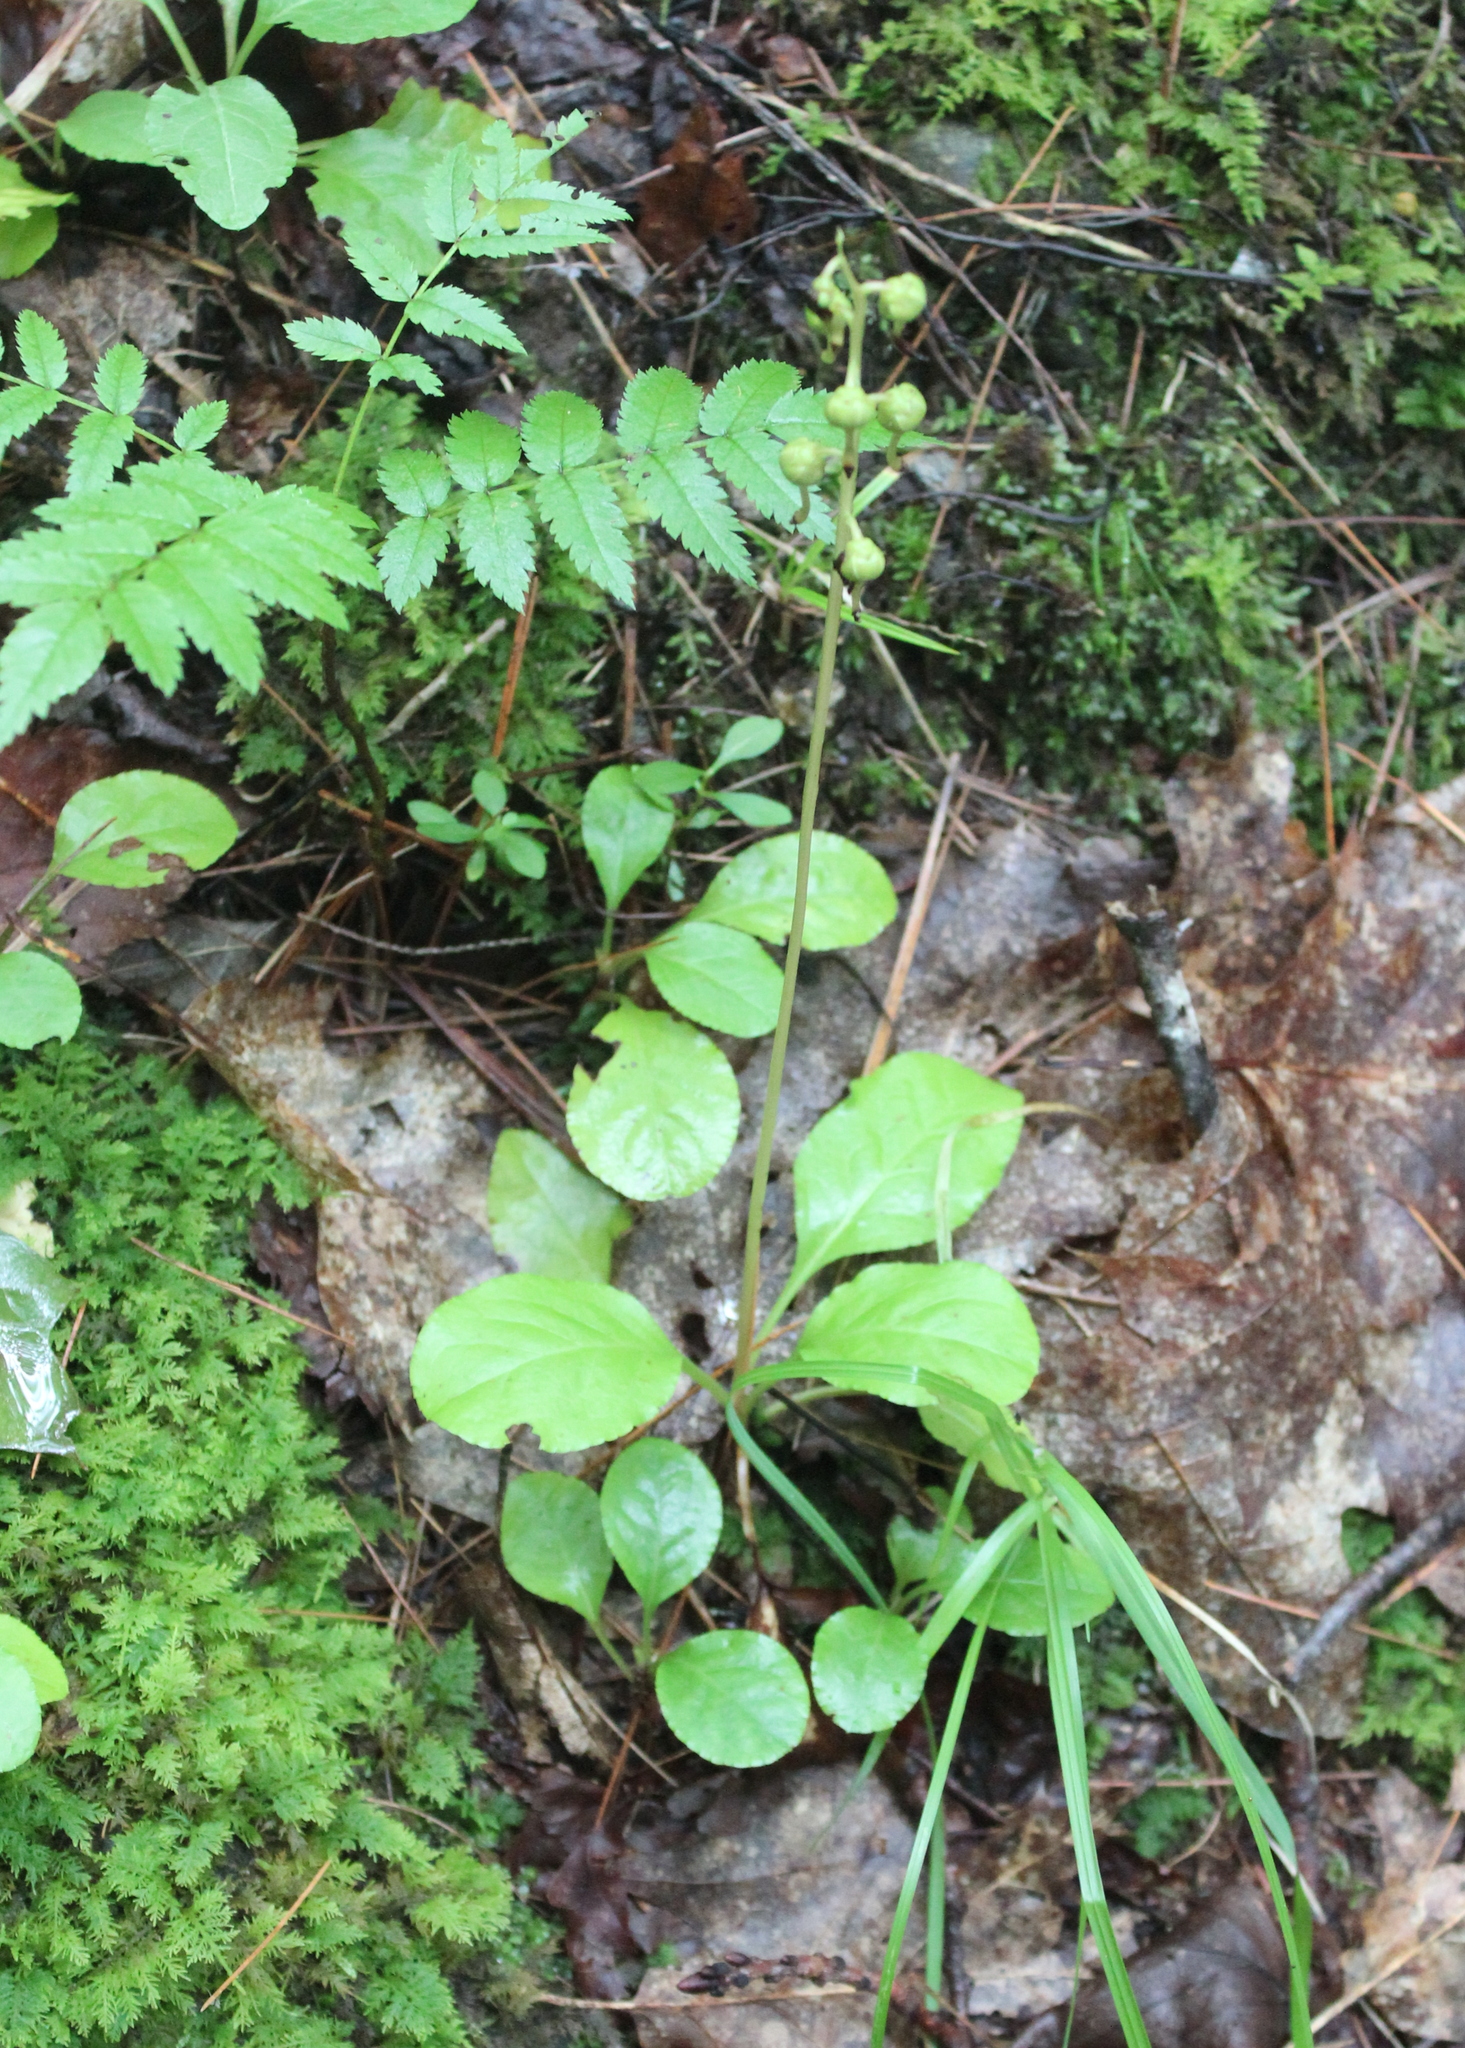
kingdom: Plantae
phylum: Tracheophyta
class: Magnoliopsida
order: Ericales
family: Ericaceae
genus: Pyrola
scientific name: Pyrola elliptica
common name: Shinleaf
